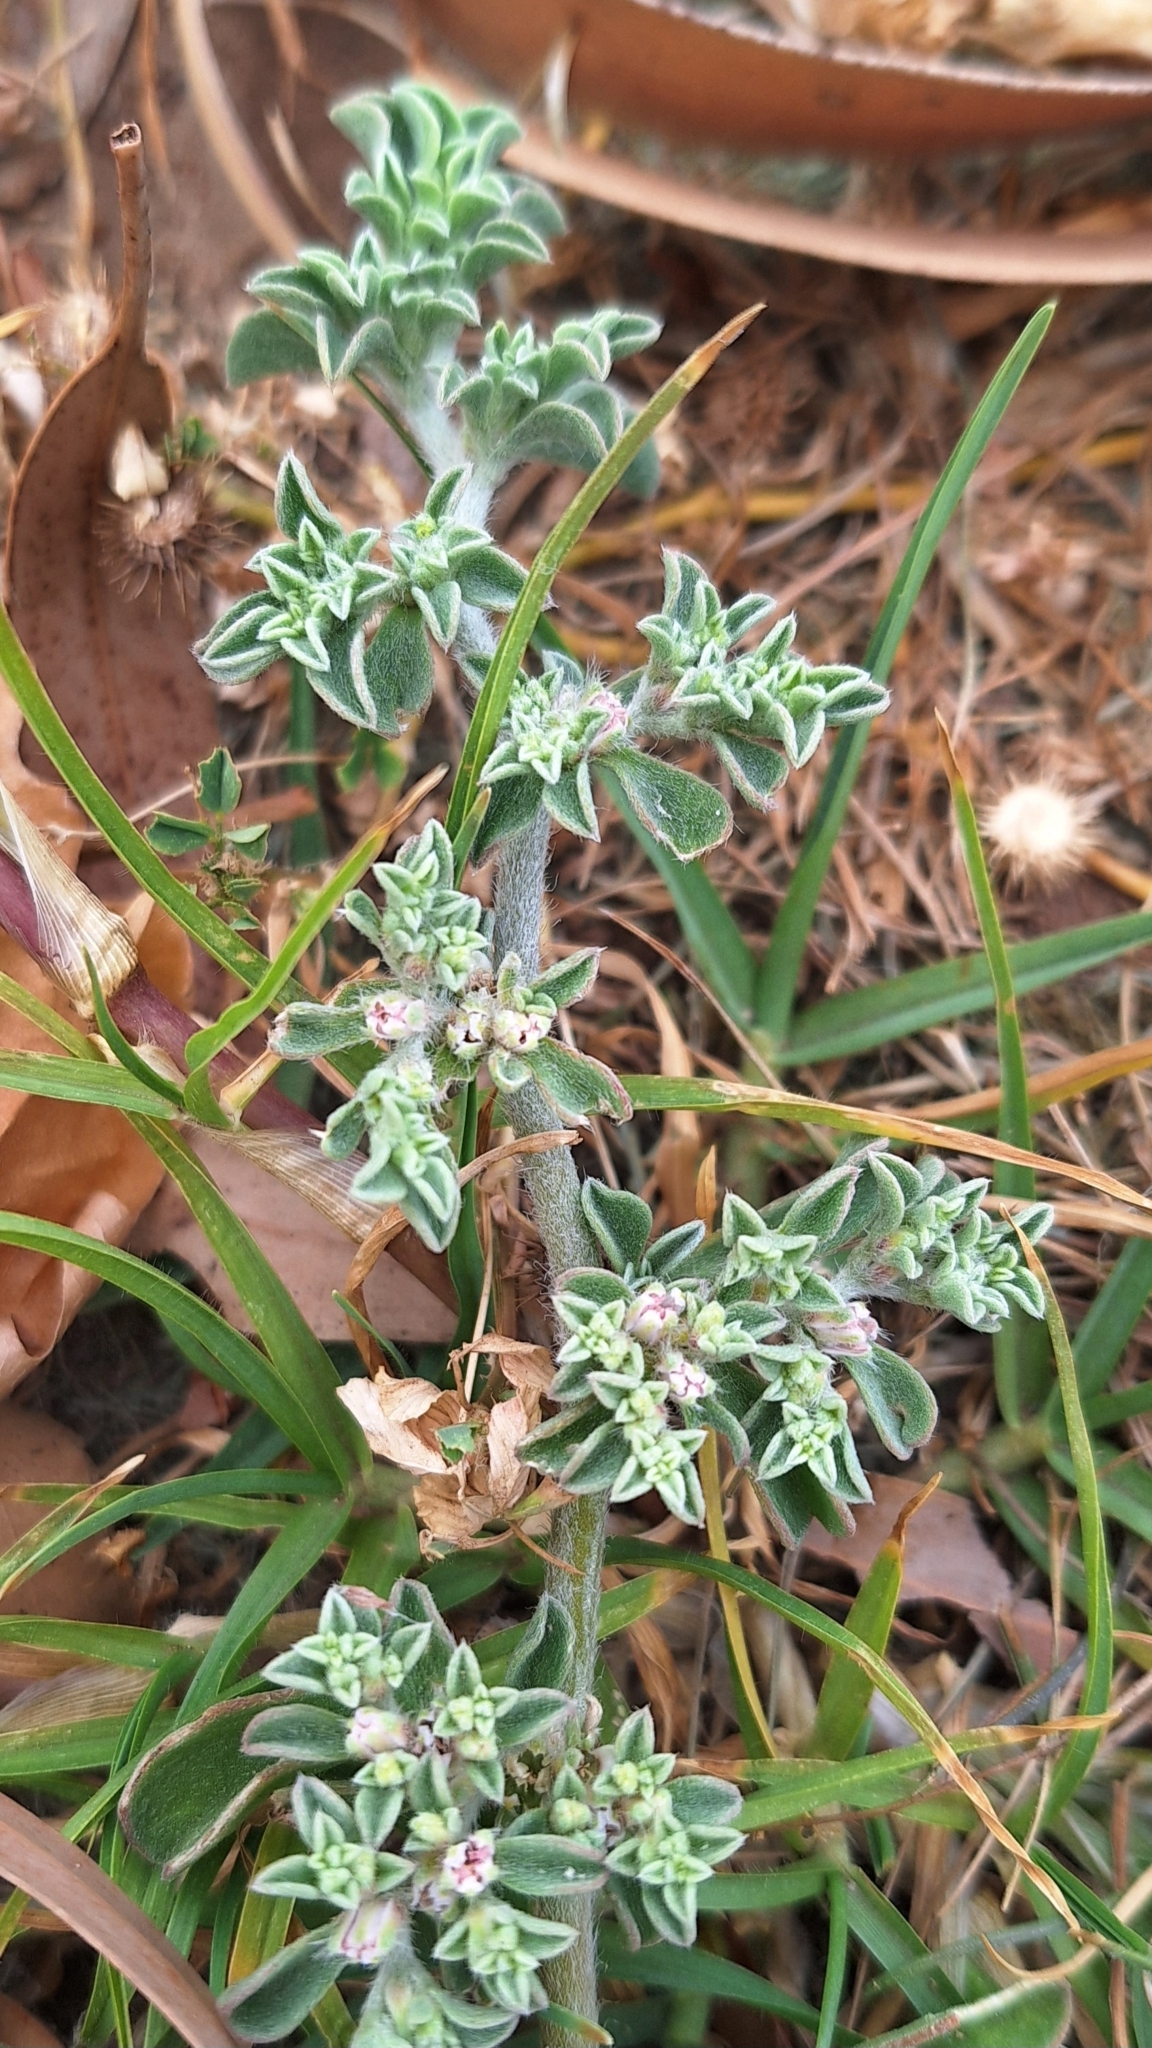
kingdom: Plantae
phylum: Tracheophyta
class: Magnoliopsida
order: Caryophyllales
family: Aizoaceae
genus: Aizoon
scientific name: Aizoon pubescens
